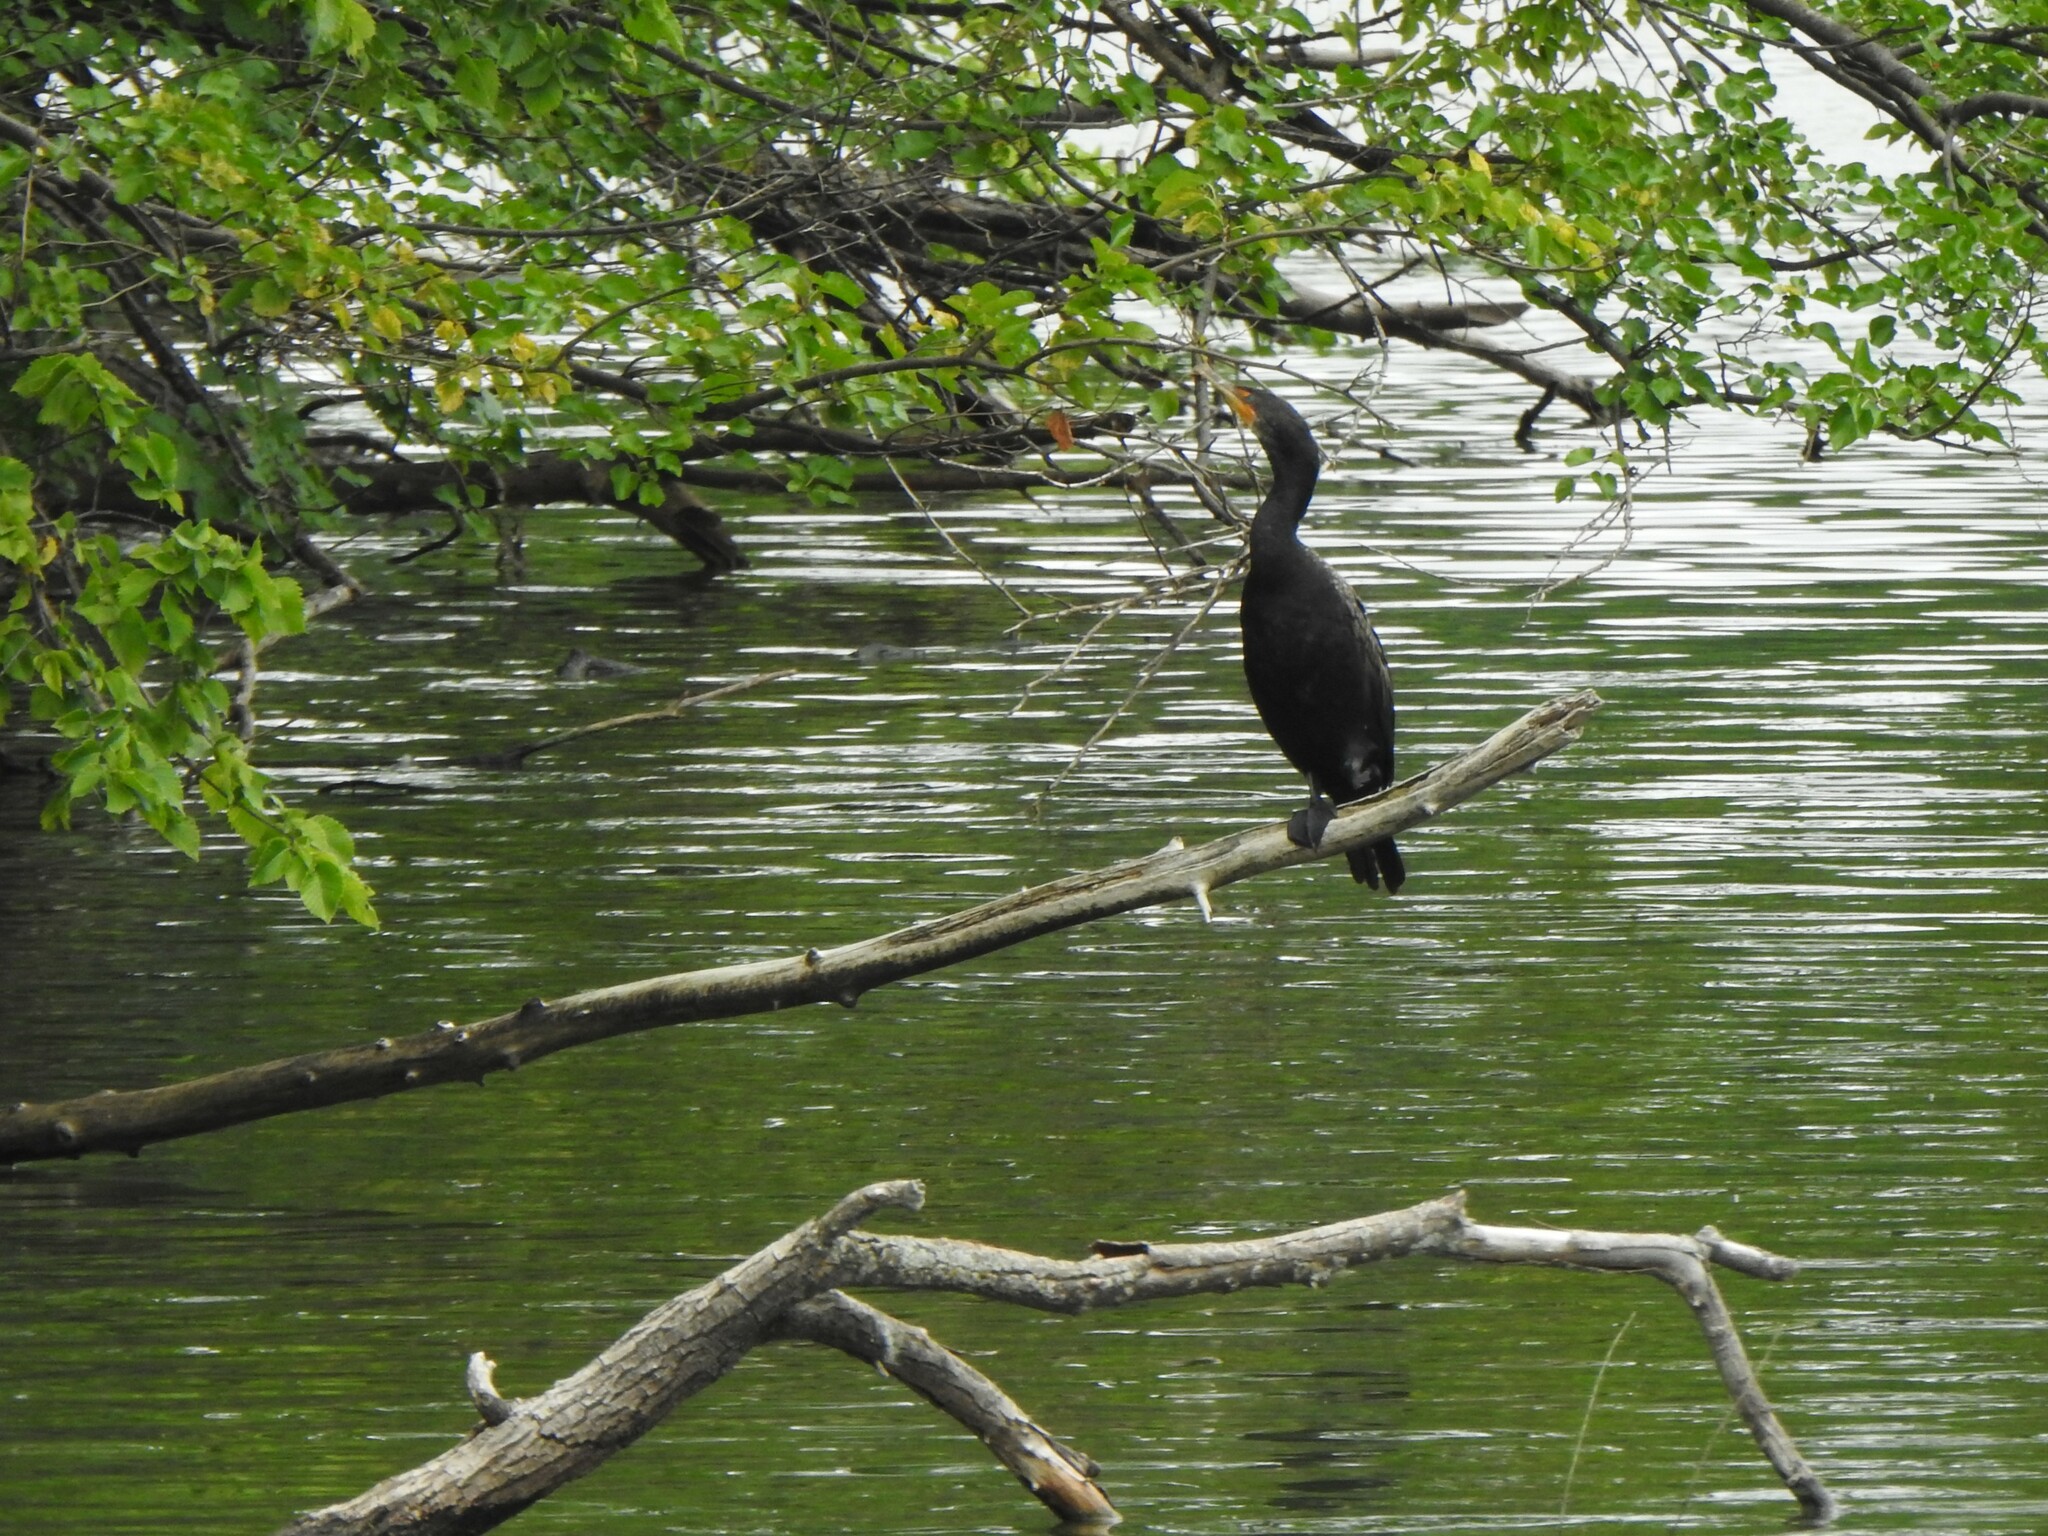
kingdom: Animalia
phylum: Chordata
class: Aves
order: Suliformes
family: Phalacrocoracidae
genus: Phalacrocorax
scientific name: Phalacrocorax auritus
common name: Double-crested cormorant
